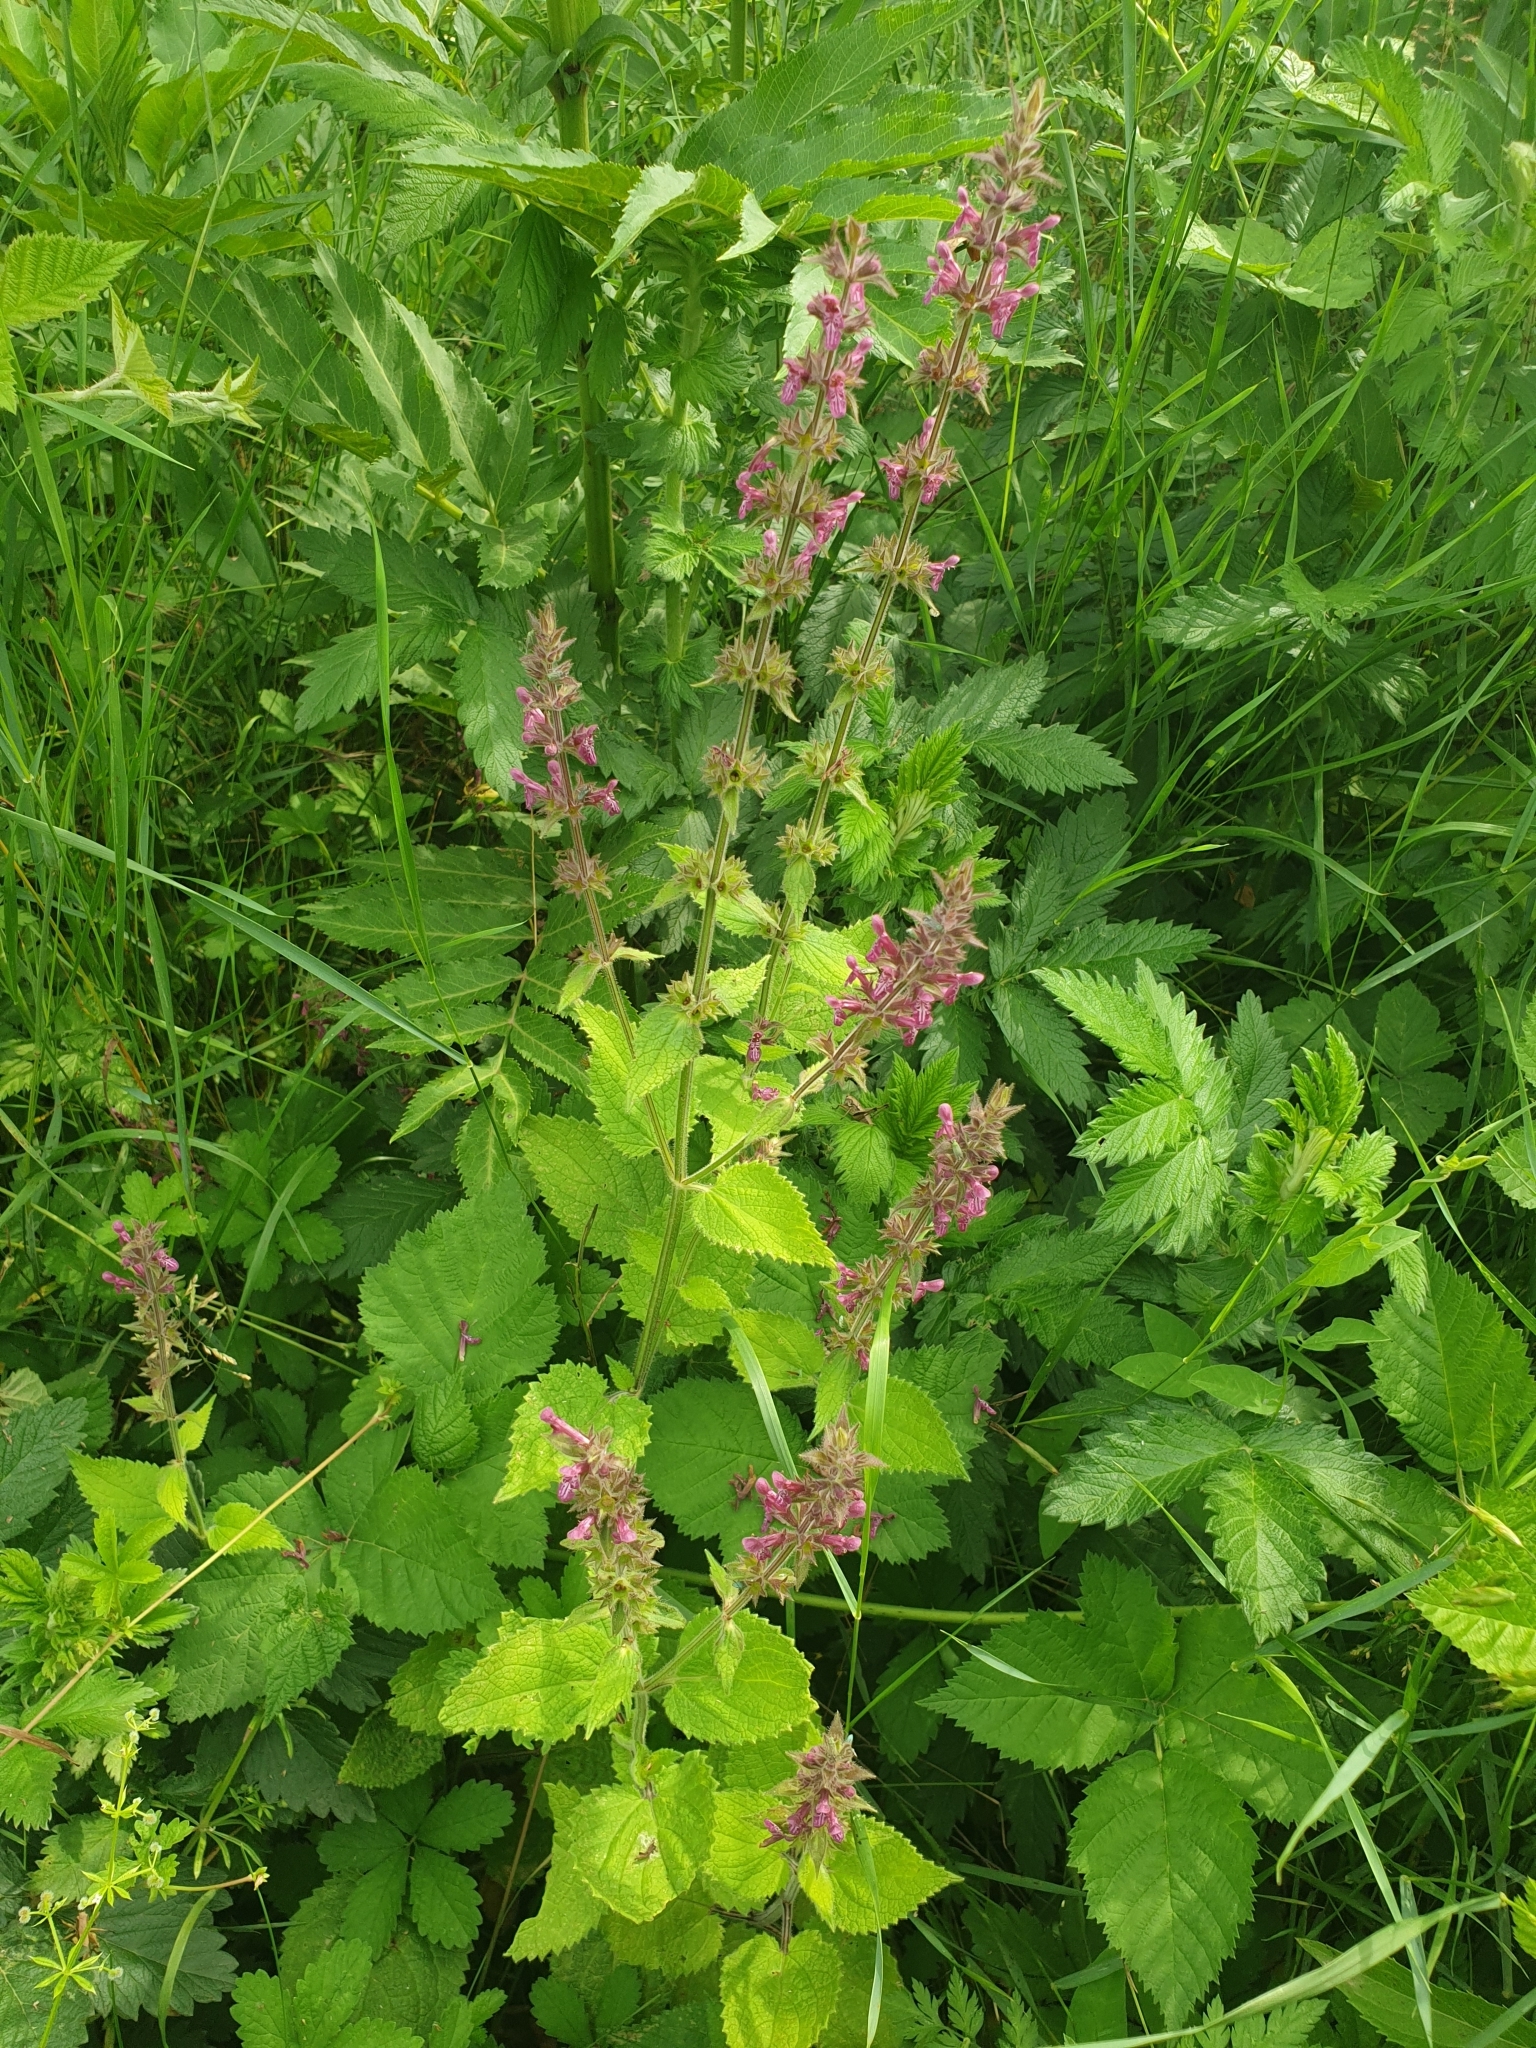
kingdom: Plantae
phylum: Tracheophyta
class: Magnoliopsida
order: Lamiales
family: Lamiaceae
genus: Stachys
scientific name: Stachys sylvatica
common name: Hedge woundwort
